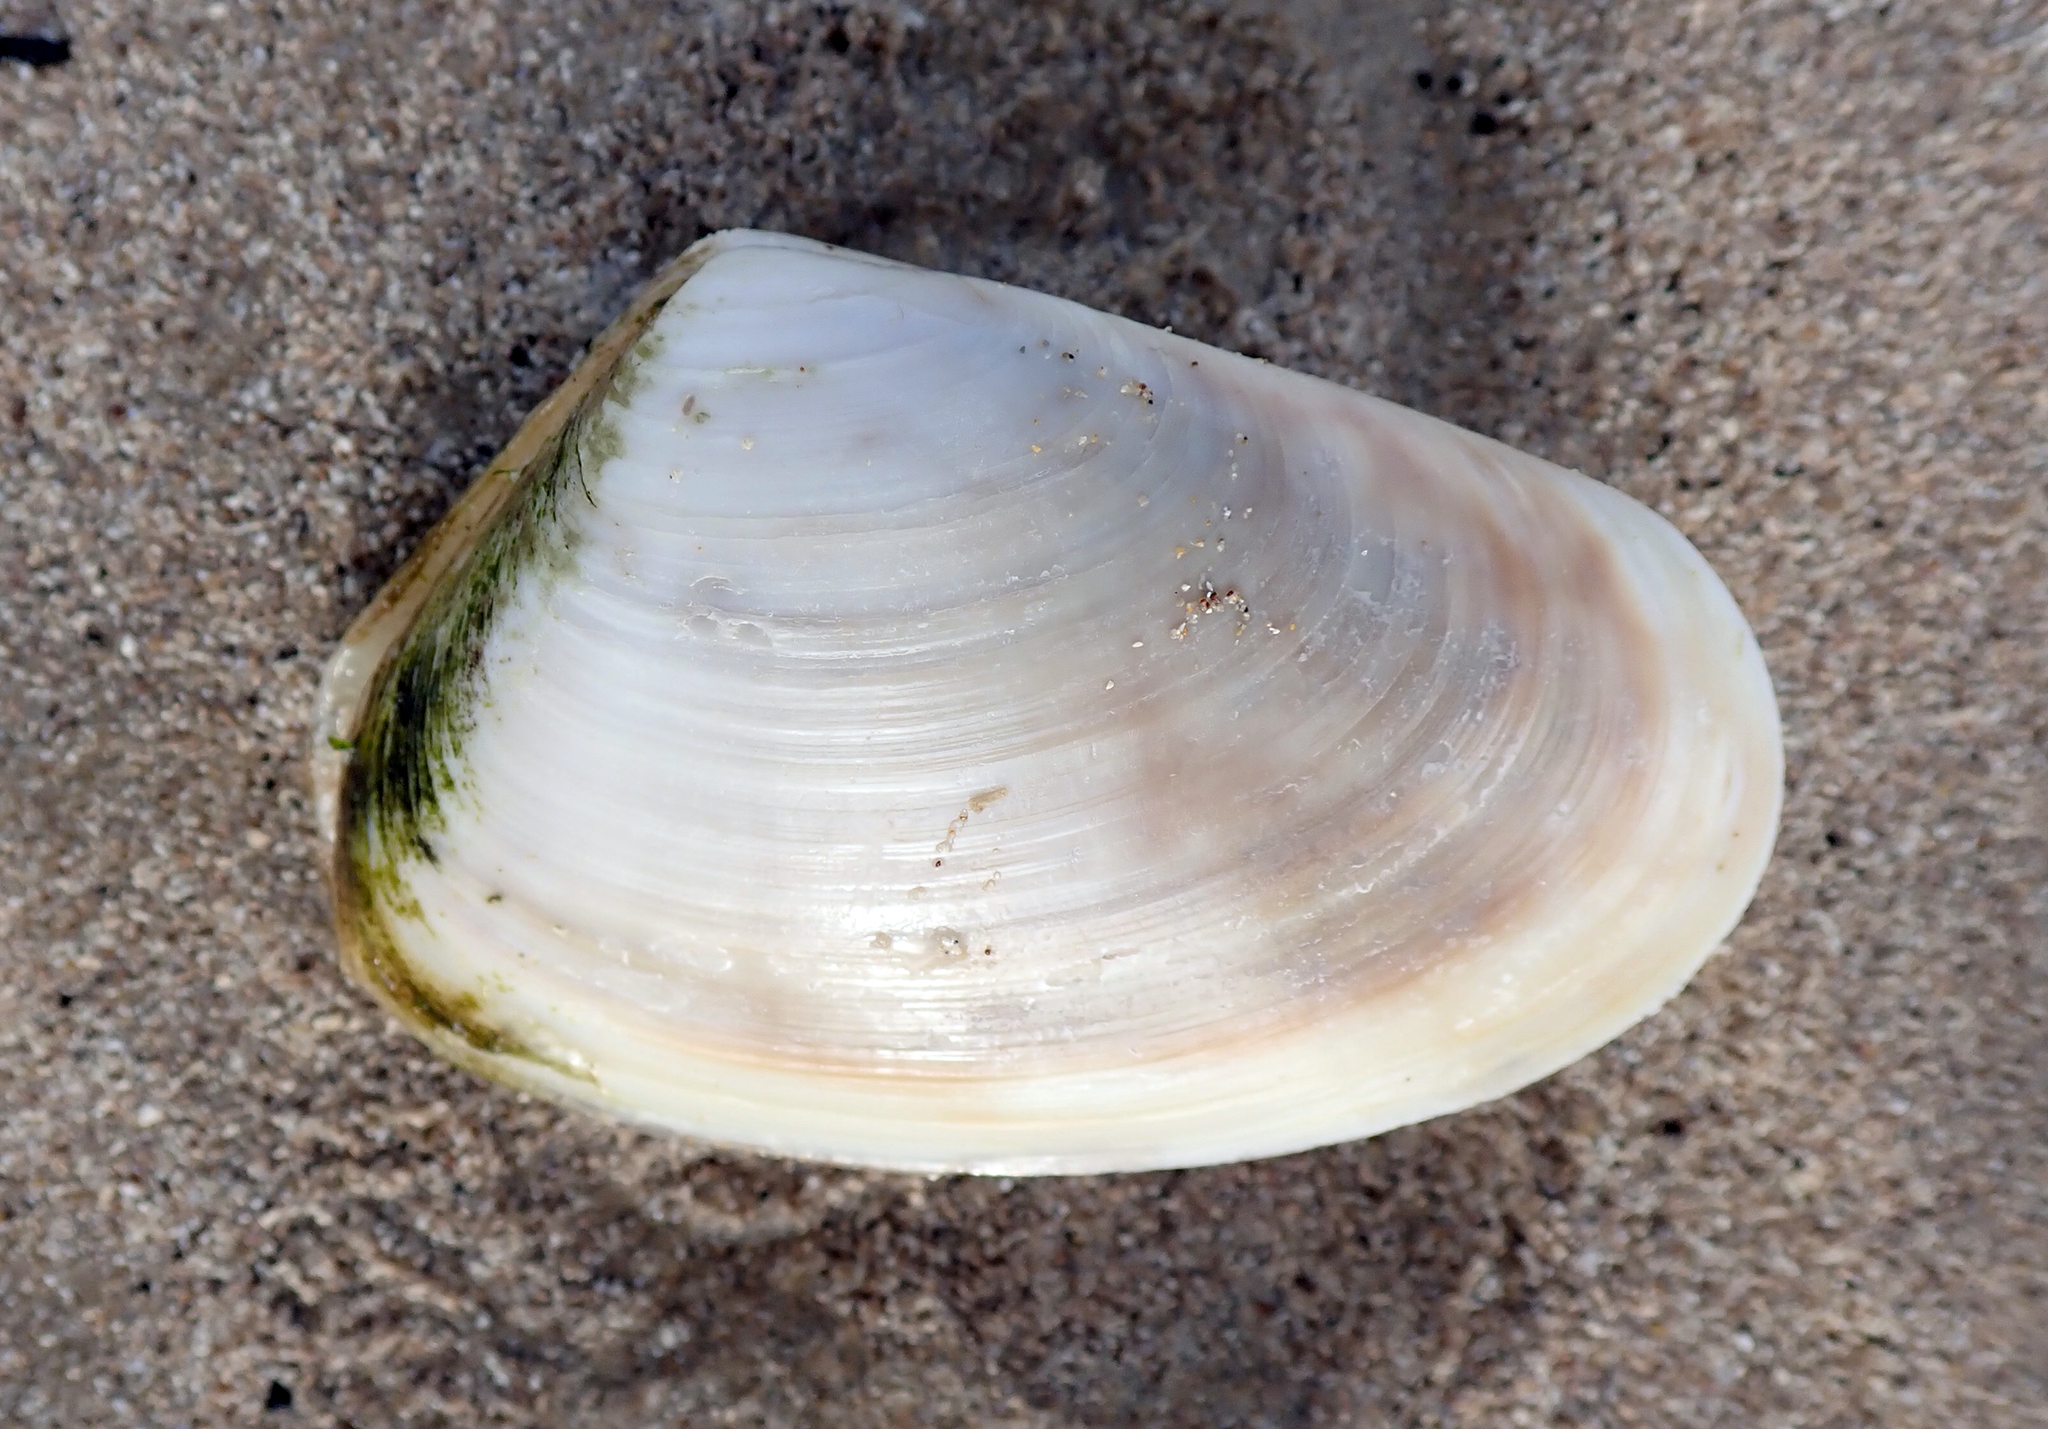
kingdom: Animalia
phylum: Mollusca
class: Bivalvia
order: Venerida
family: Mesodesmatidae
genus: Paphies
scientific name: Paphies subtriangulata
